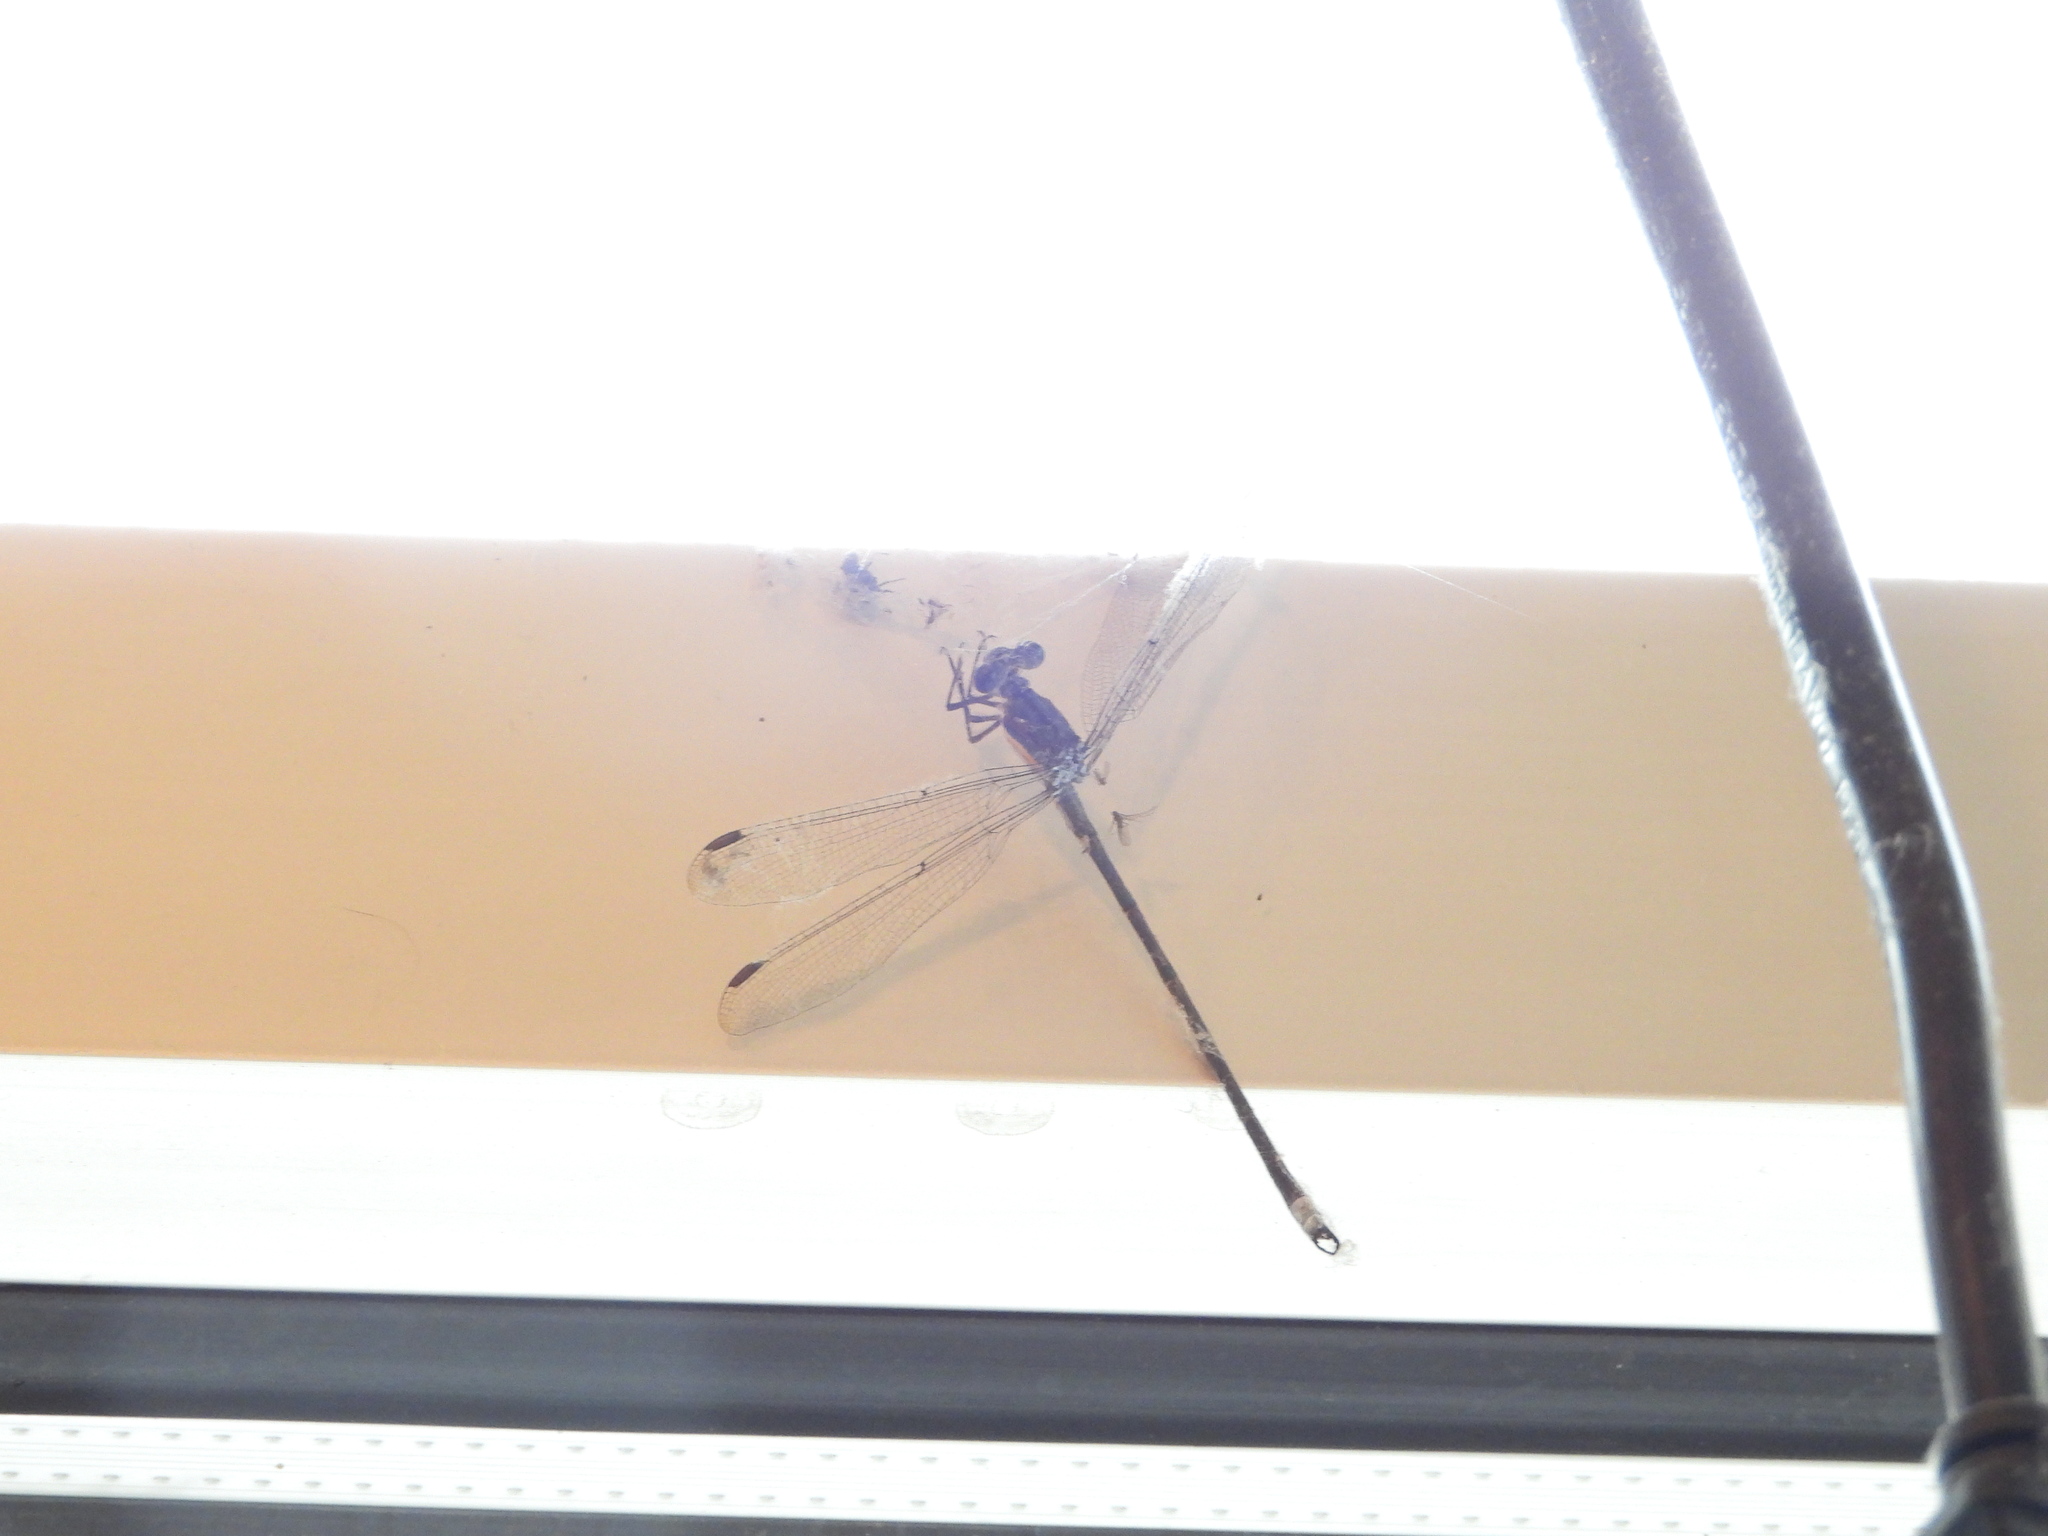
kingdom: Animalia
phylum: Arthropoda
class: Insecta
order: Odonata
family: Lestidae
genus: Archilestes
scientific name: Archilestes grandis
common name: Great spreadwing
